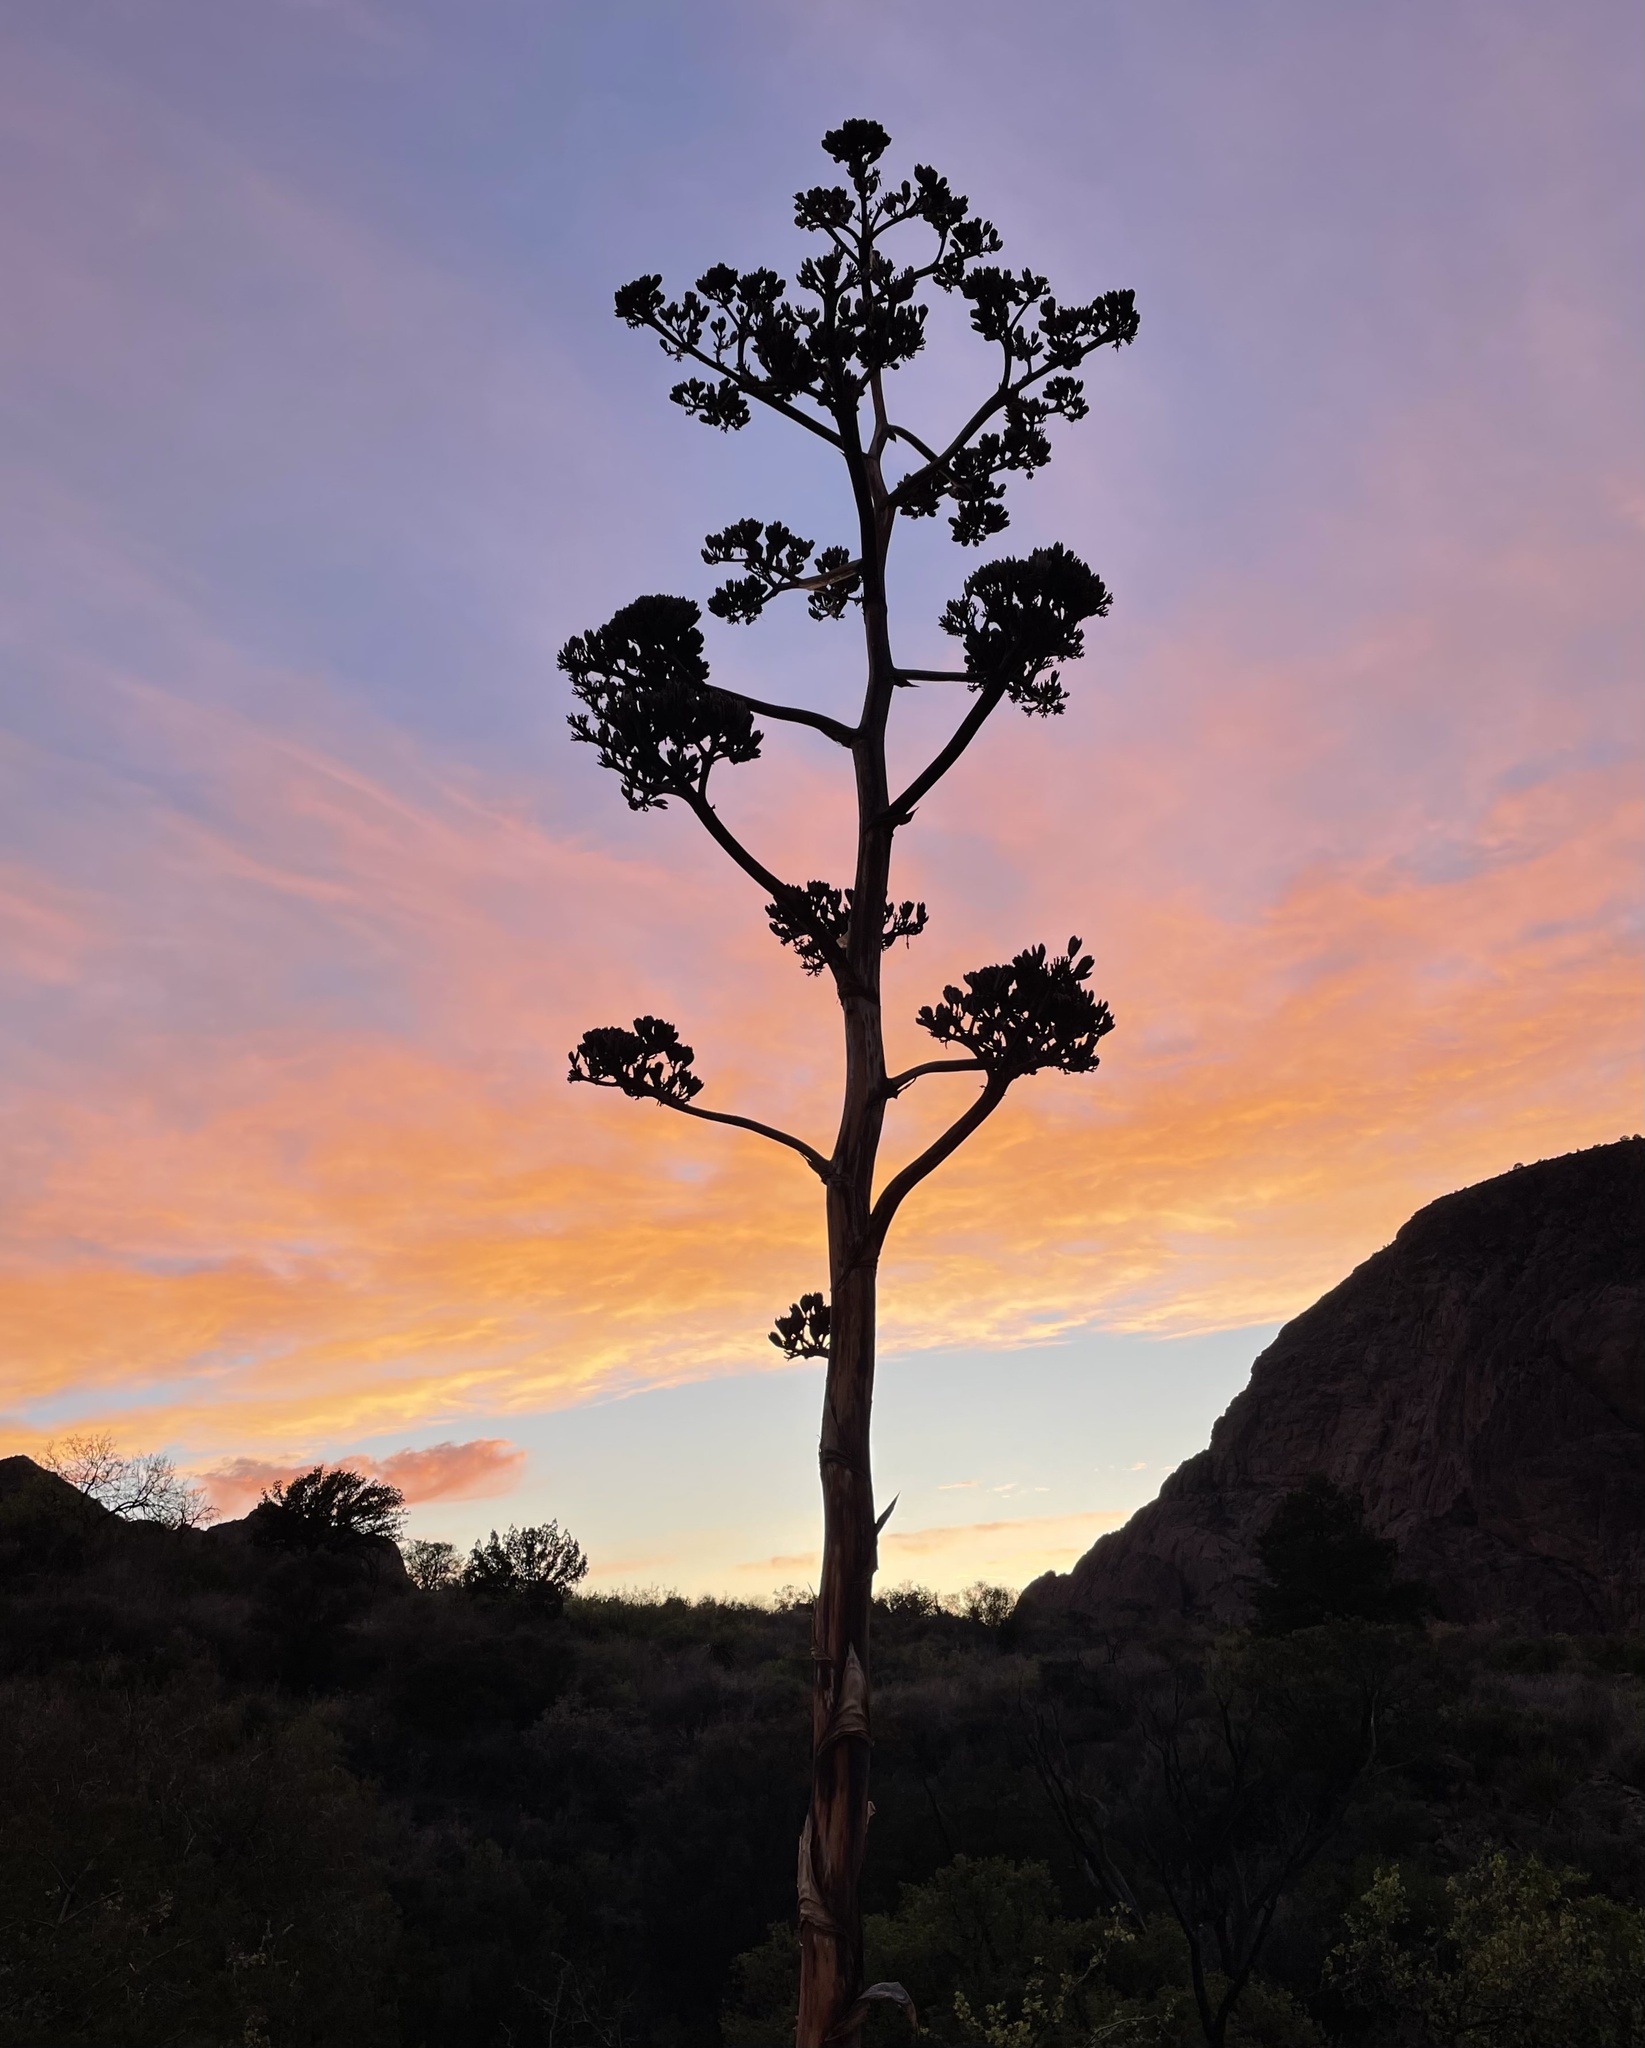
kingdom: Plantae
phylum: Tracheophyta
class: Liliopsida
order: Asparagales
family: Asparagaceae
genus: Agave
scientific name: Agave havardiana
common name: Havard agave
